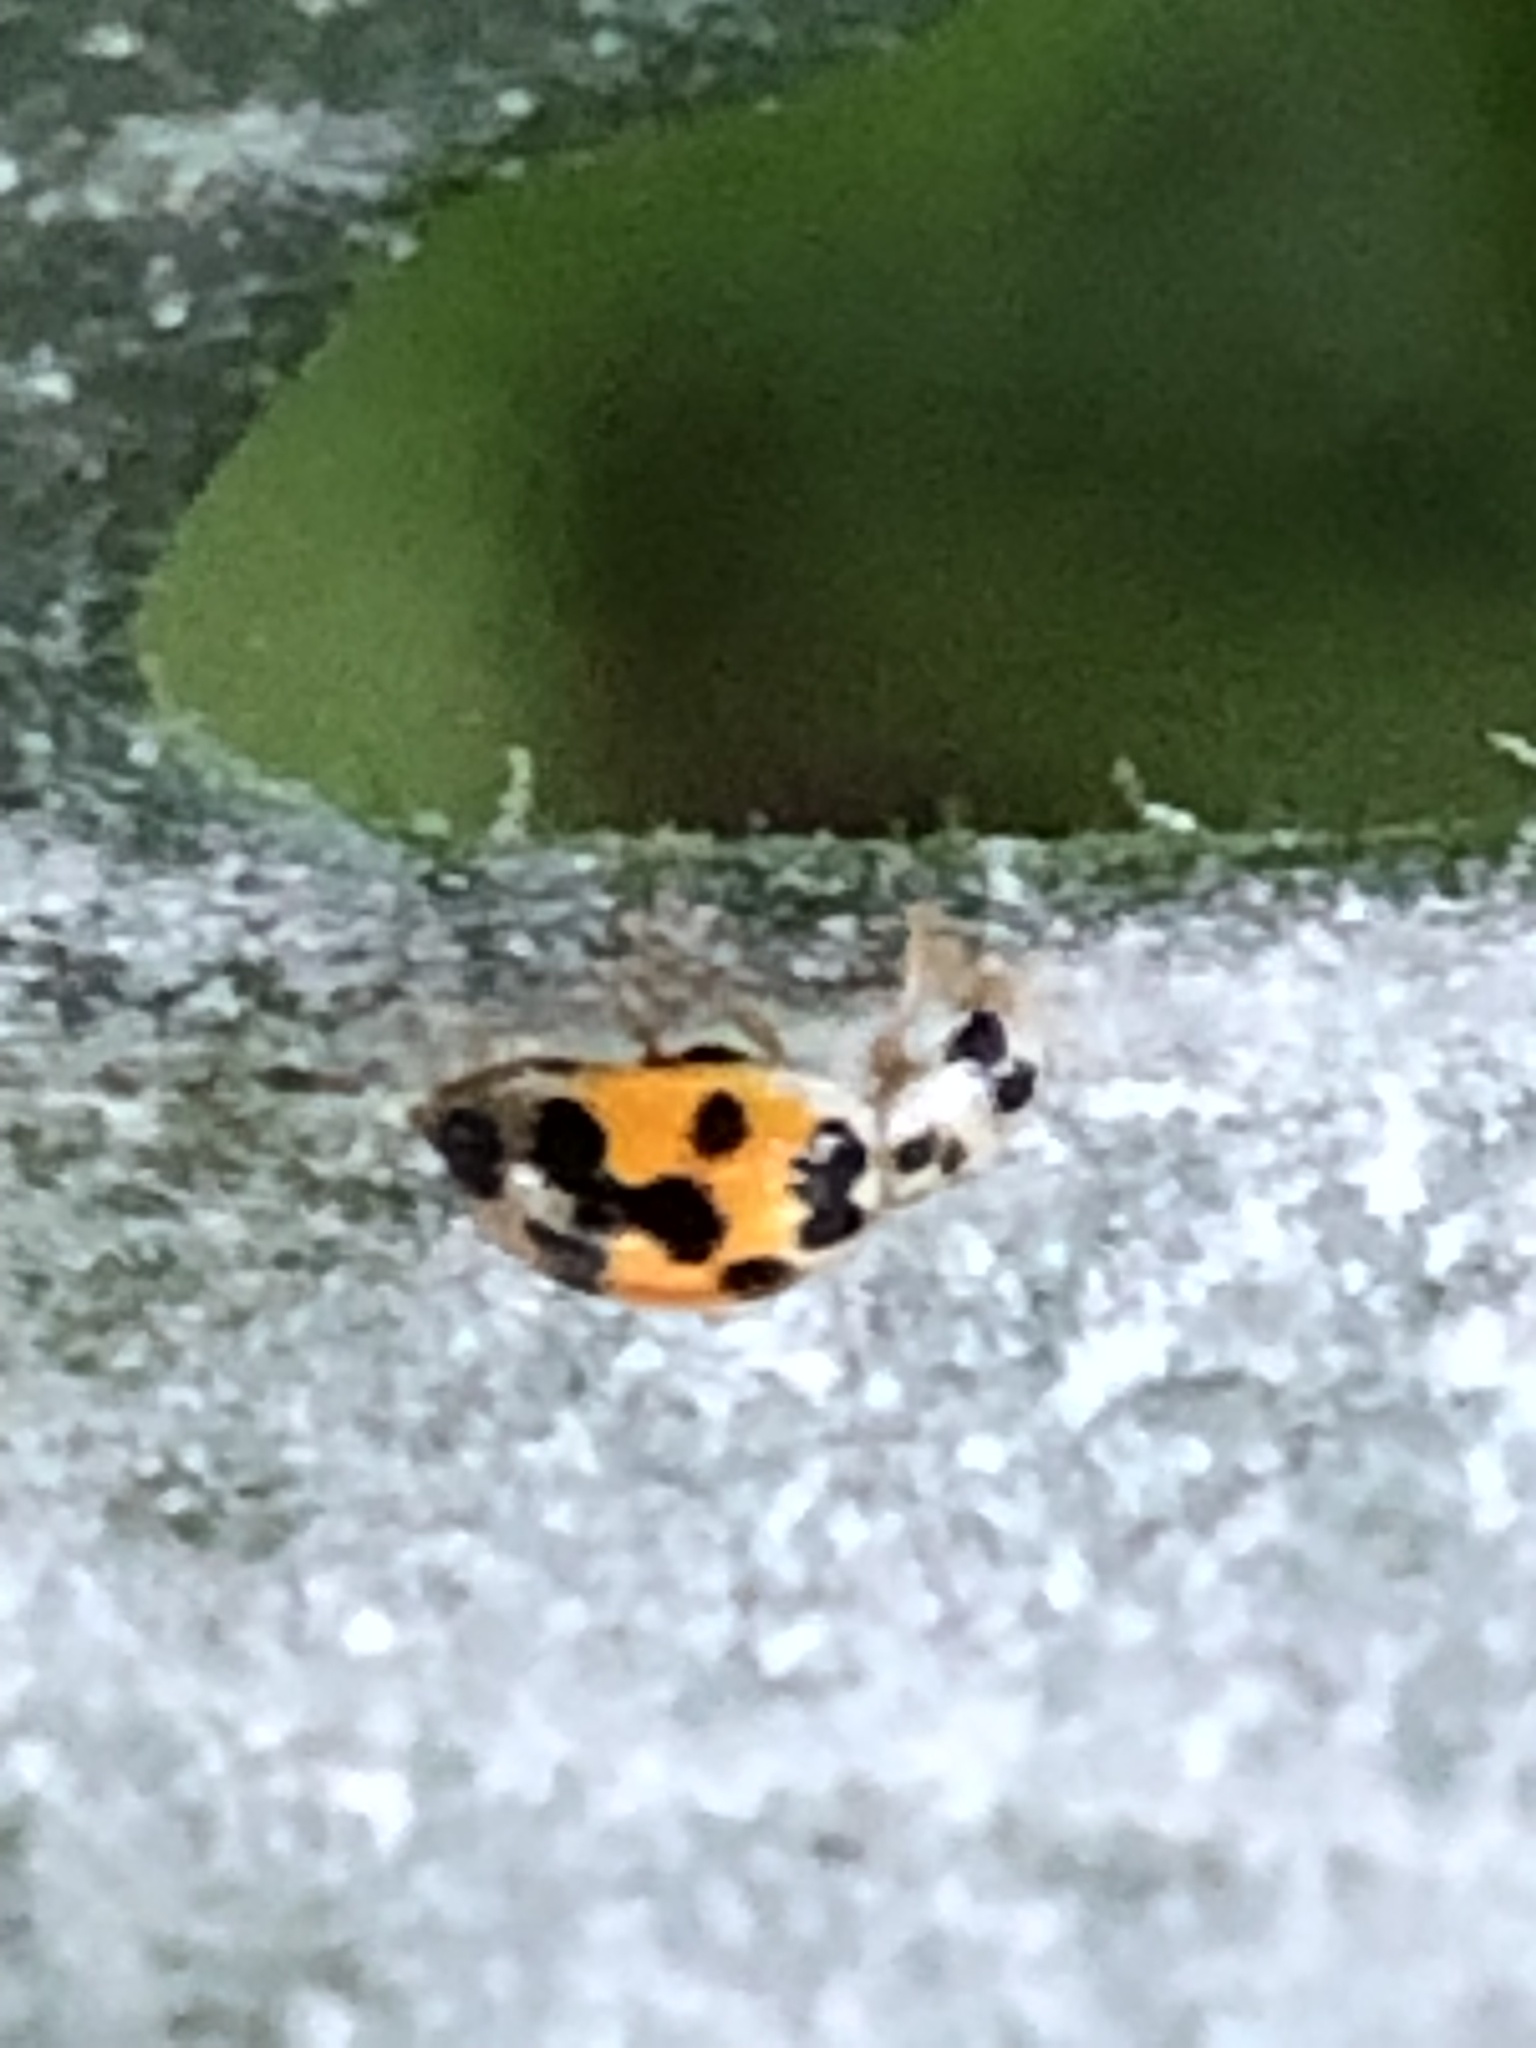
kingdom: Animalia
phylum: Arthropoda
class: Insecta
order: Coleoptera
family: Coccinellidae
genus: Psyllobora
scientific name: Psyllobora vigintimaculata
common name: Ladybird beetle
